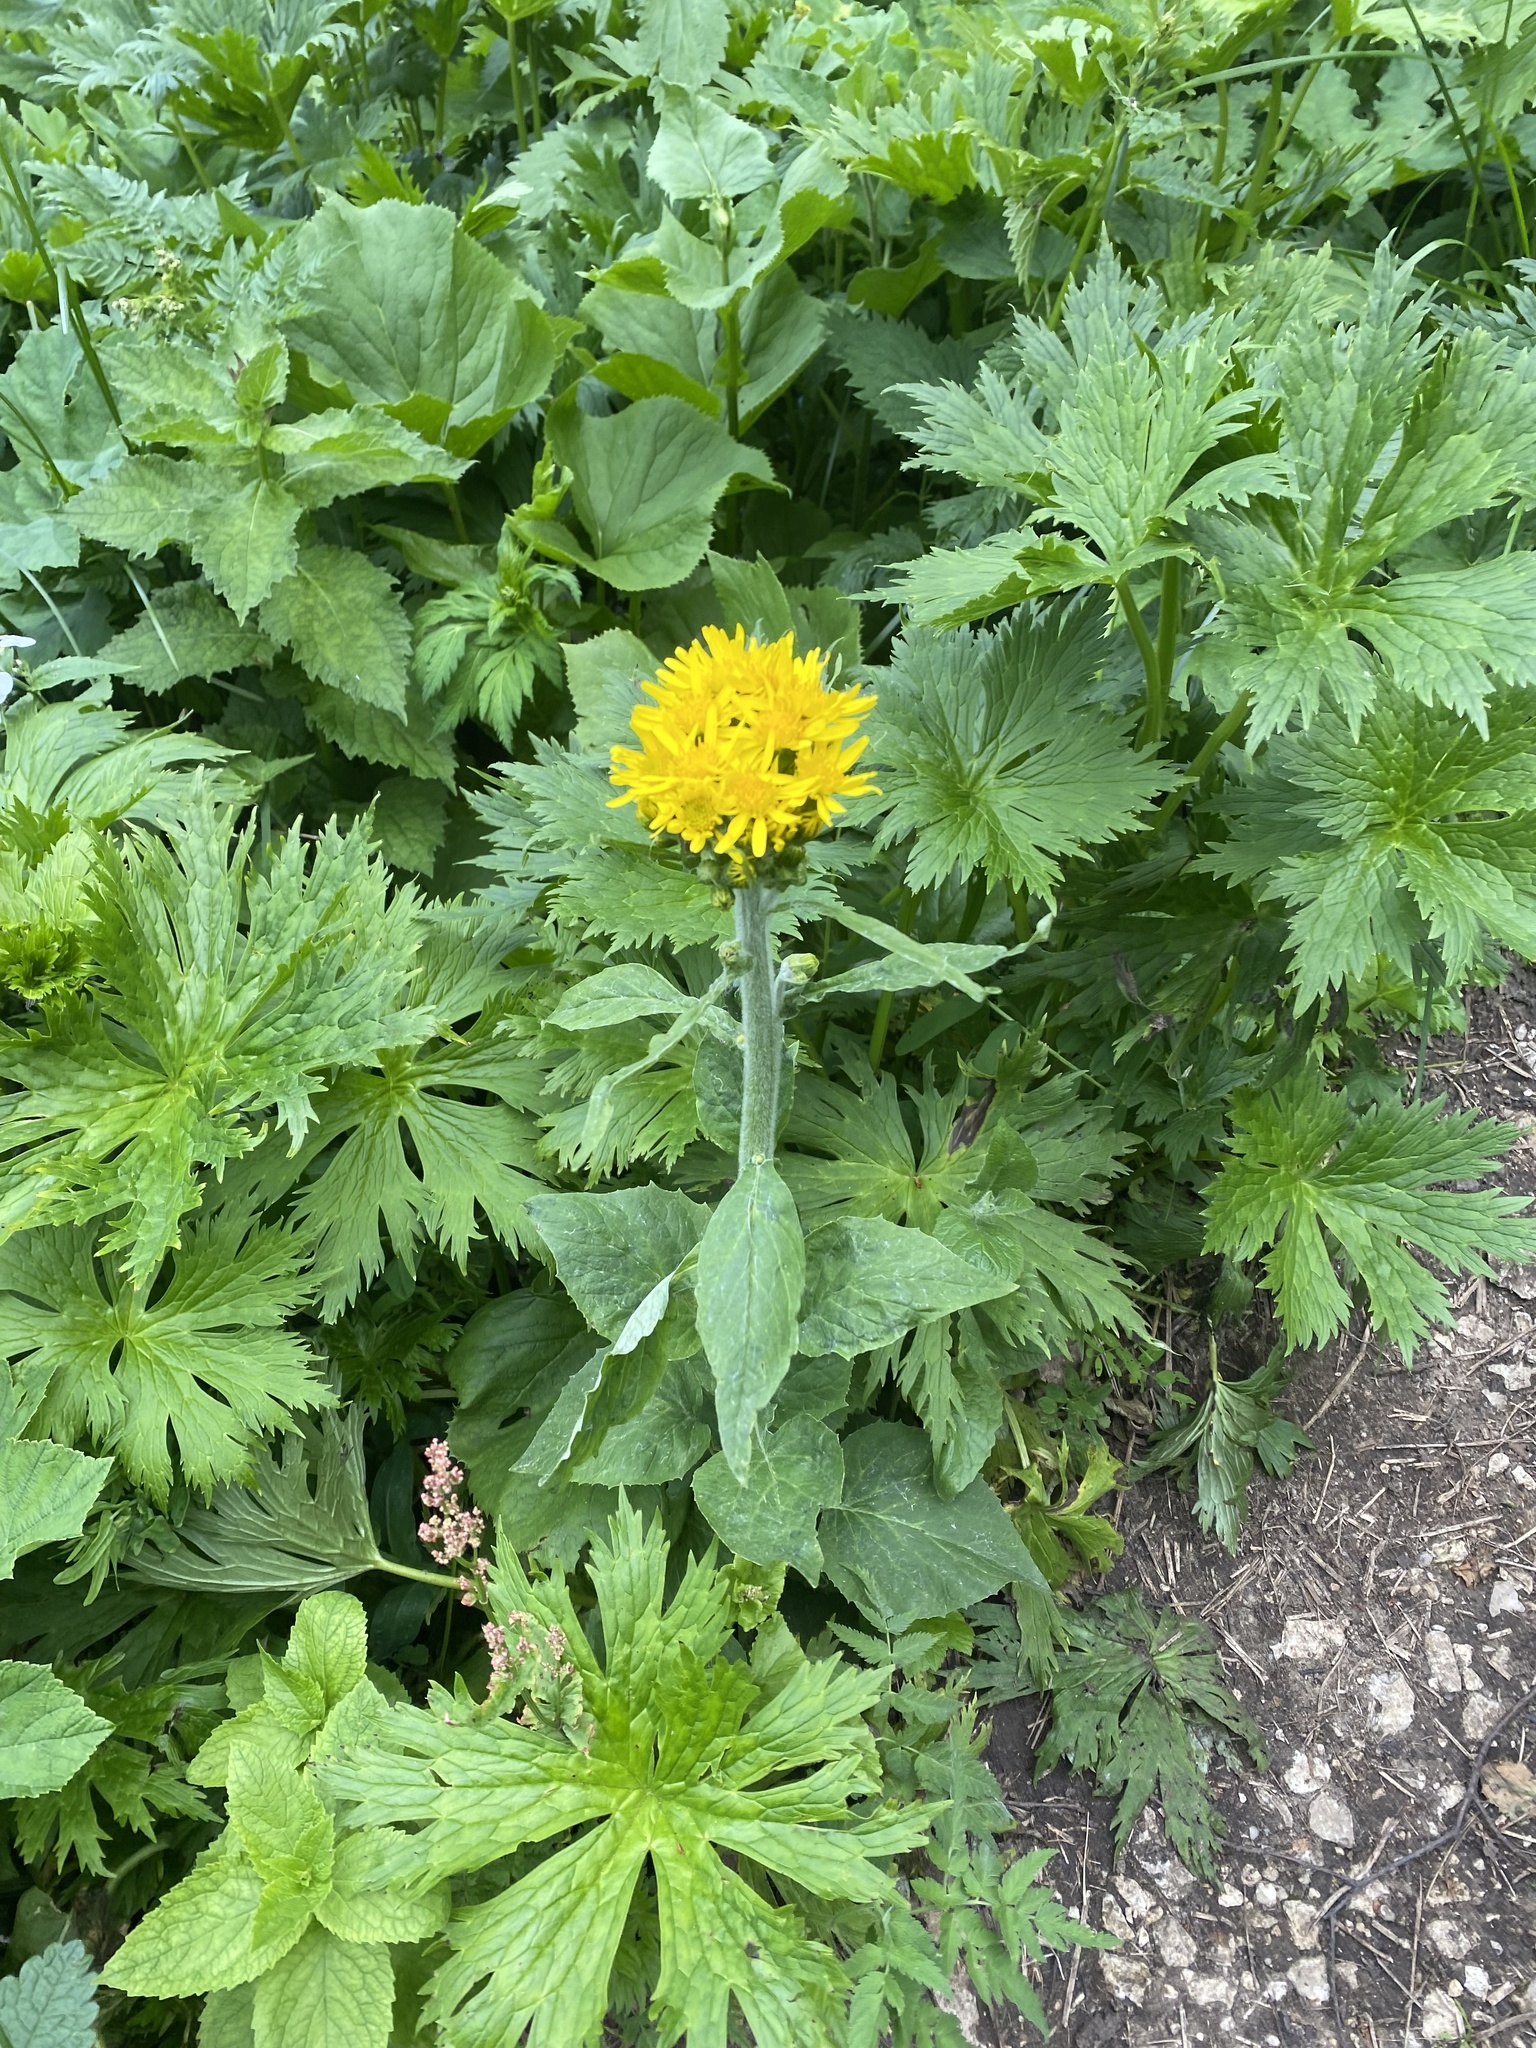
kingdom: Plantae
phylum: Tracheophyta
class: Magnoliopsida
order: Asterales
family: Asteraceae
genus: Tephroseris
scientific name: Tephroseris cladobotrys
